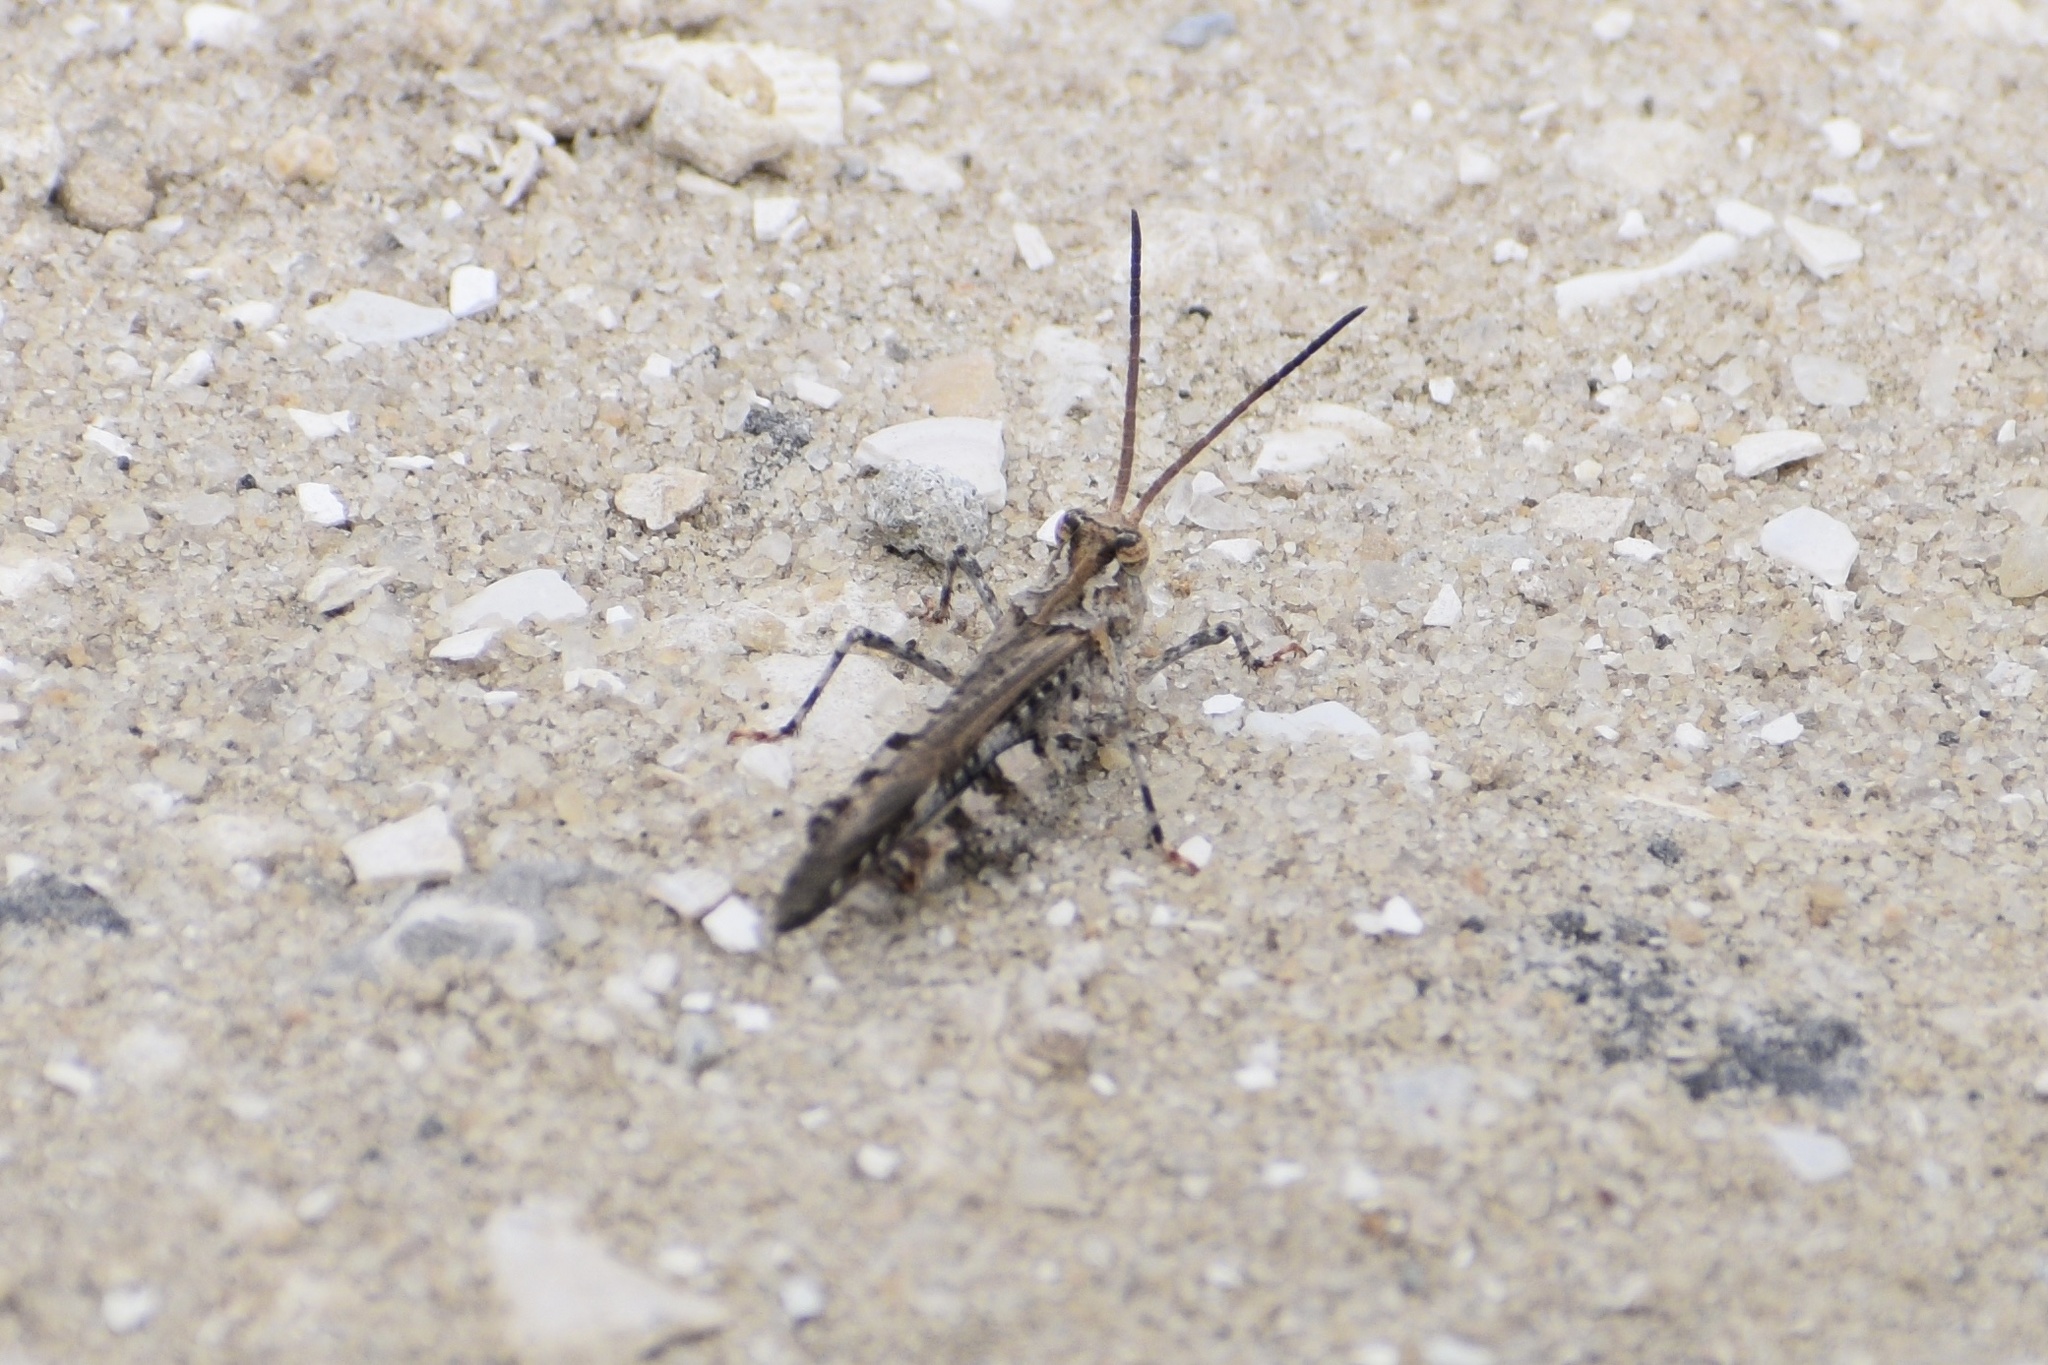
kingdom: Animalia
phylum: Arthropoda
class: Insecta
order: Orthoptera
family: Acrididae
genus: Psinidia
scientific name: Psinidia fenestralis
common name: Long-horned locust
